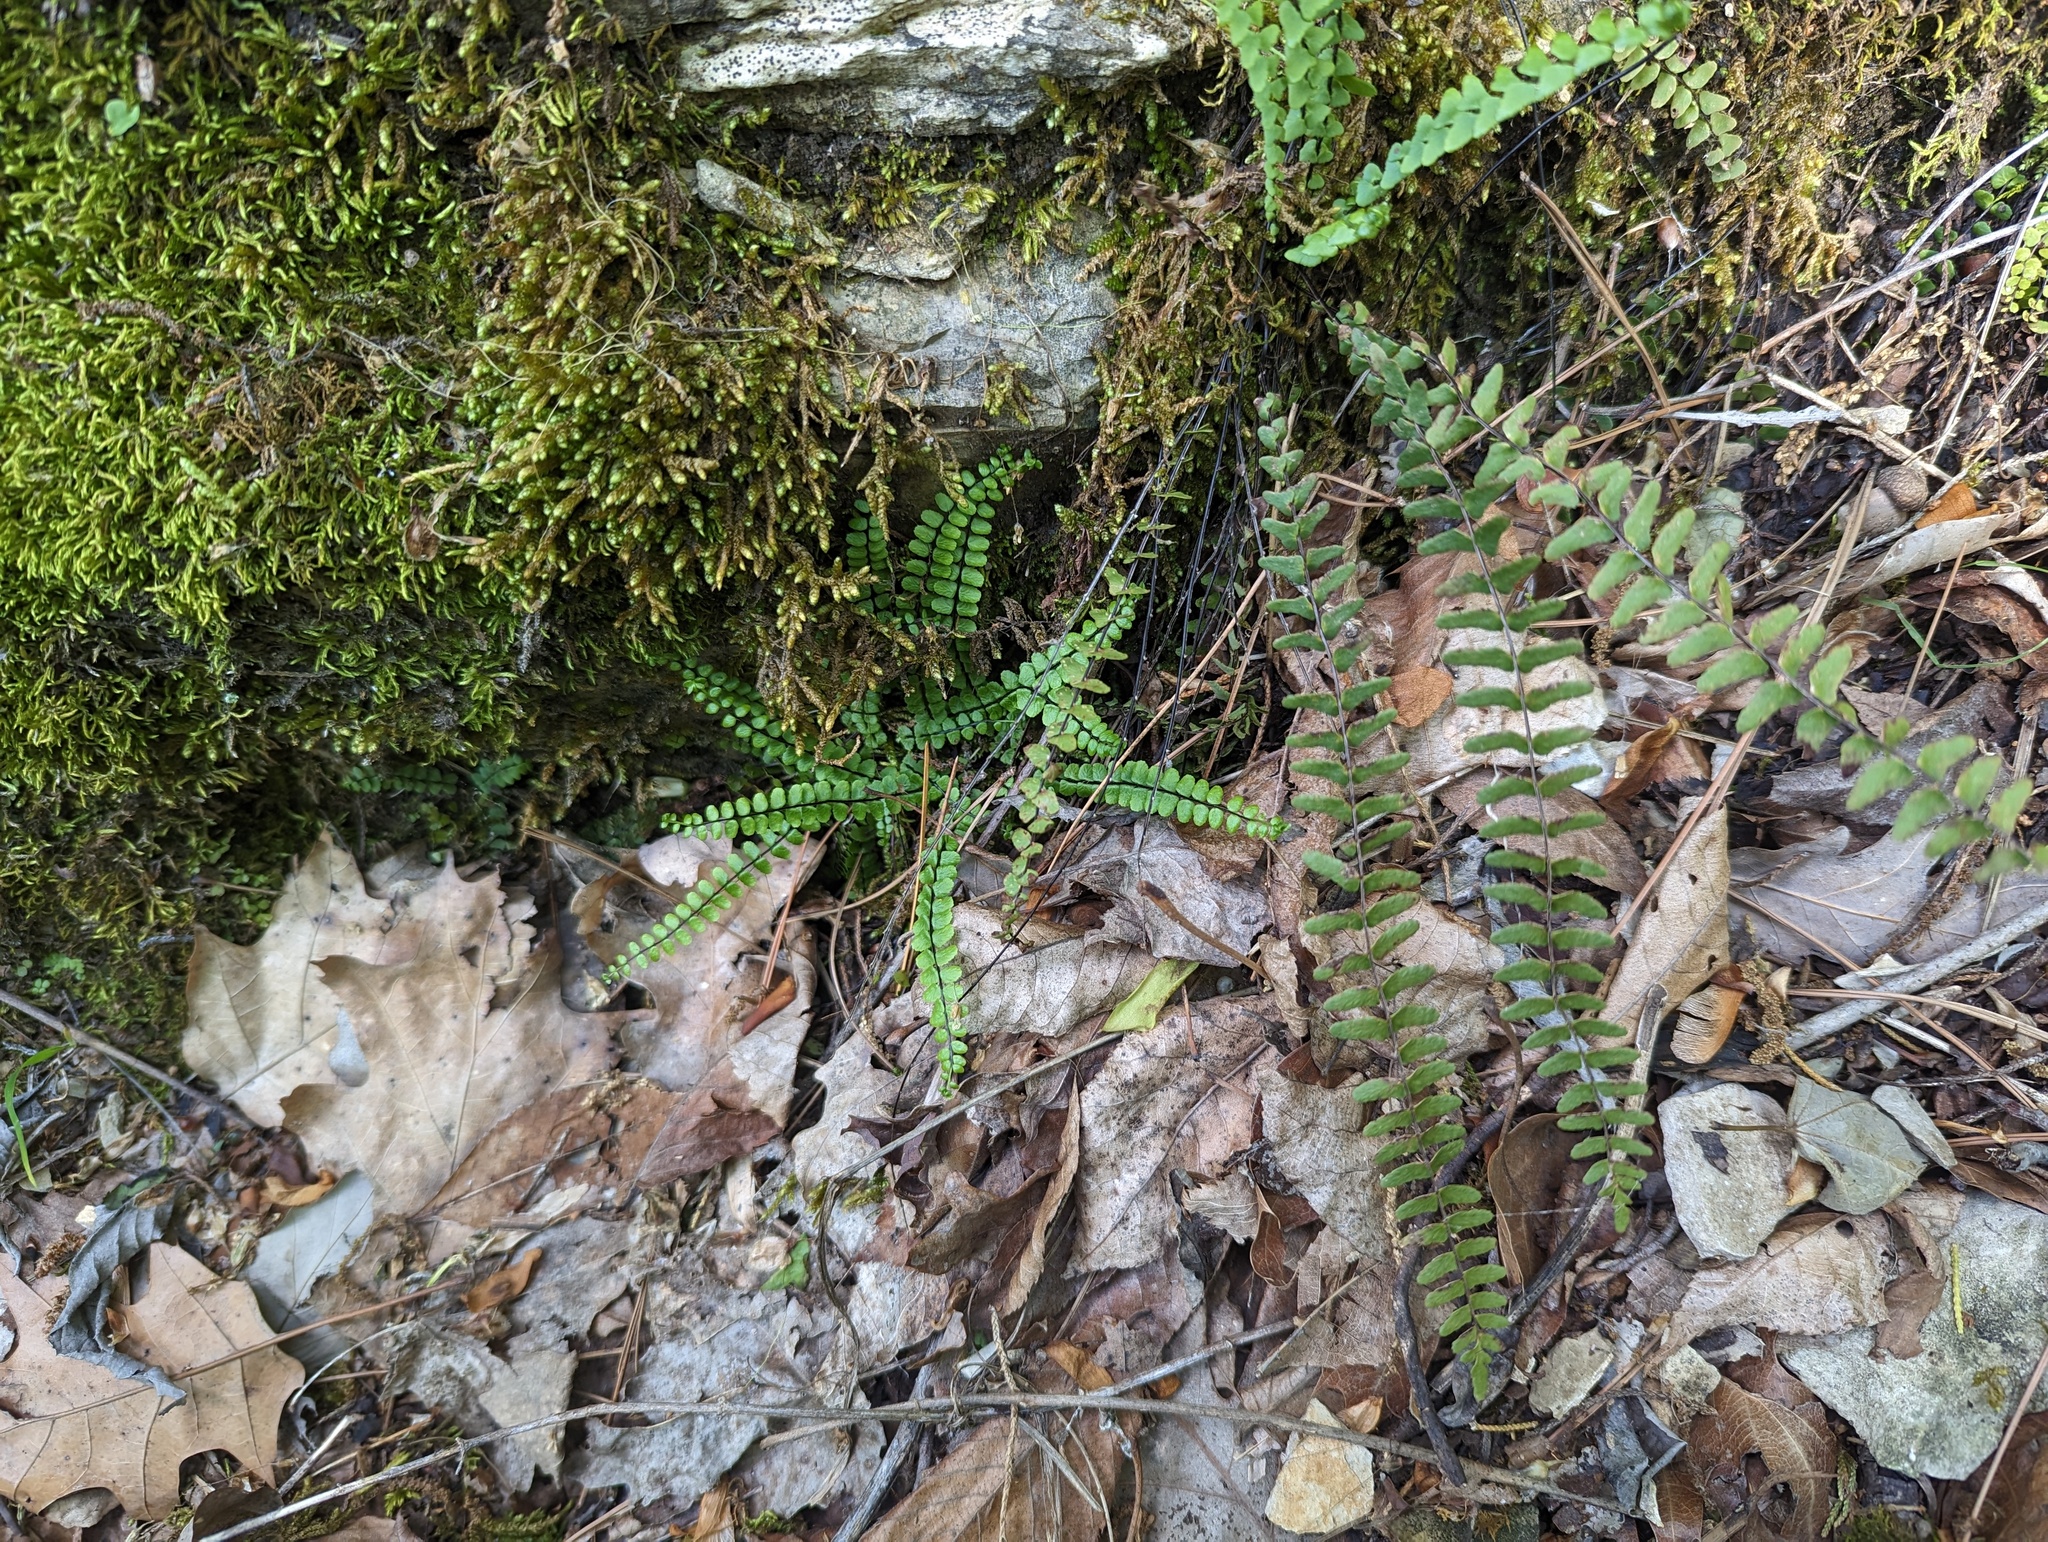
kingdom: Plantae
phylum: Tracheophyta
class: Polypodiopsida
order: Polypodiales
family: Aspleniaceae
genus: Asplenium
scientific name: Asplenium resiliens
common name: Blackstem spleenwort
